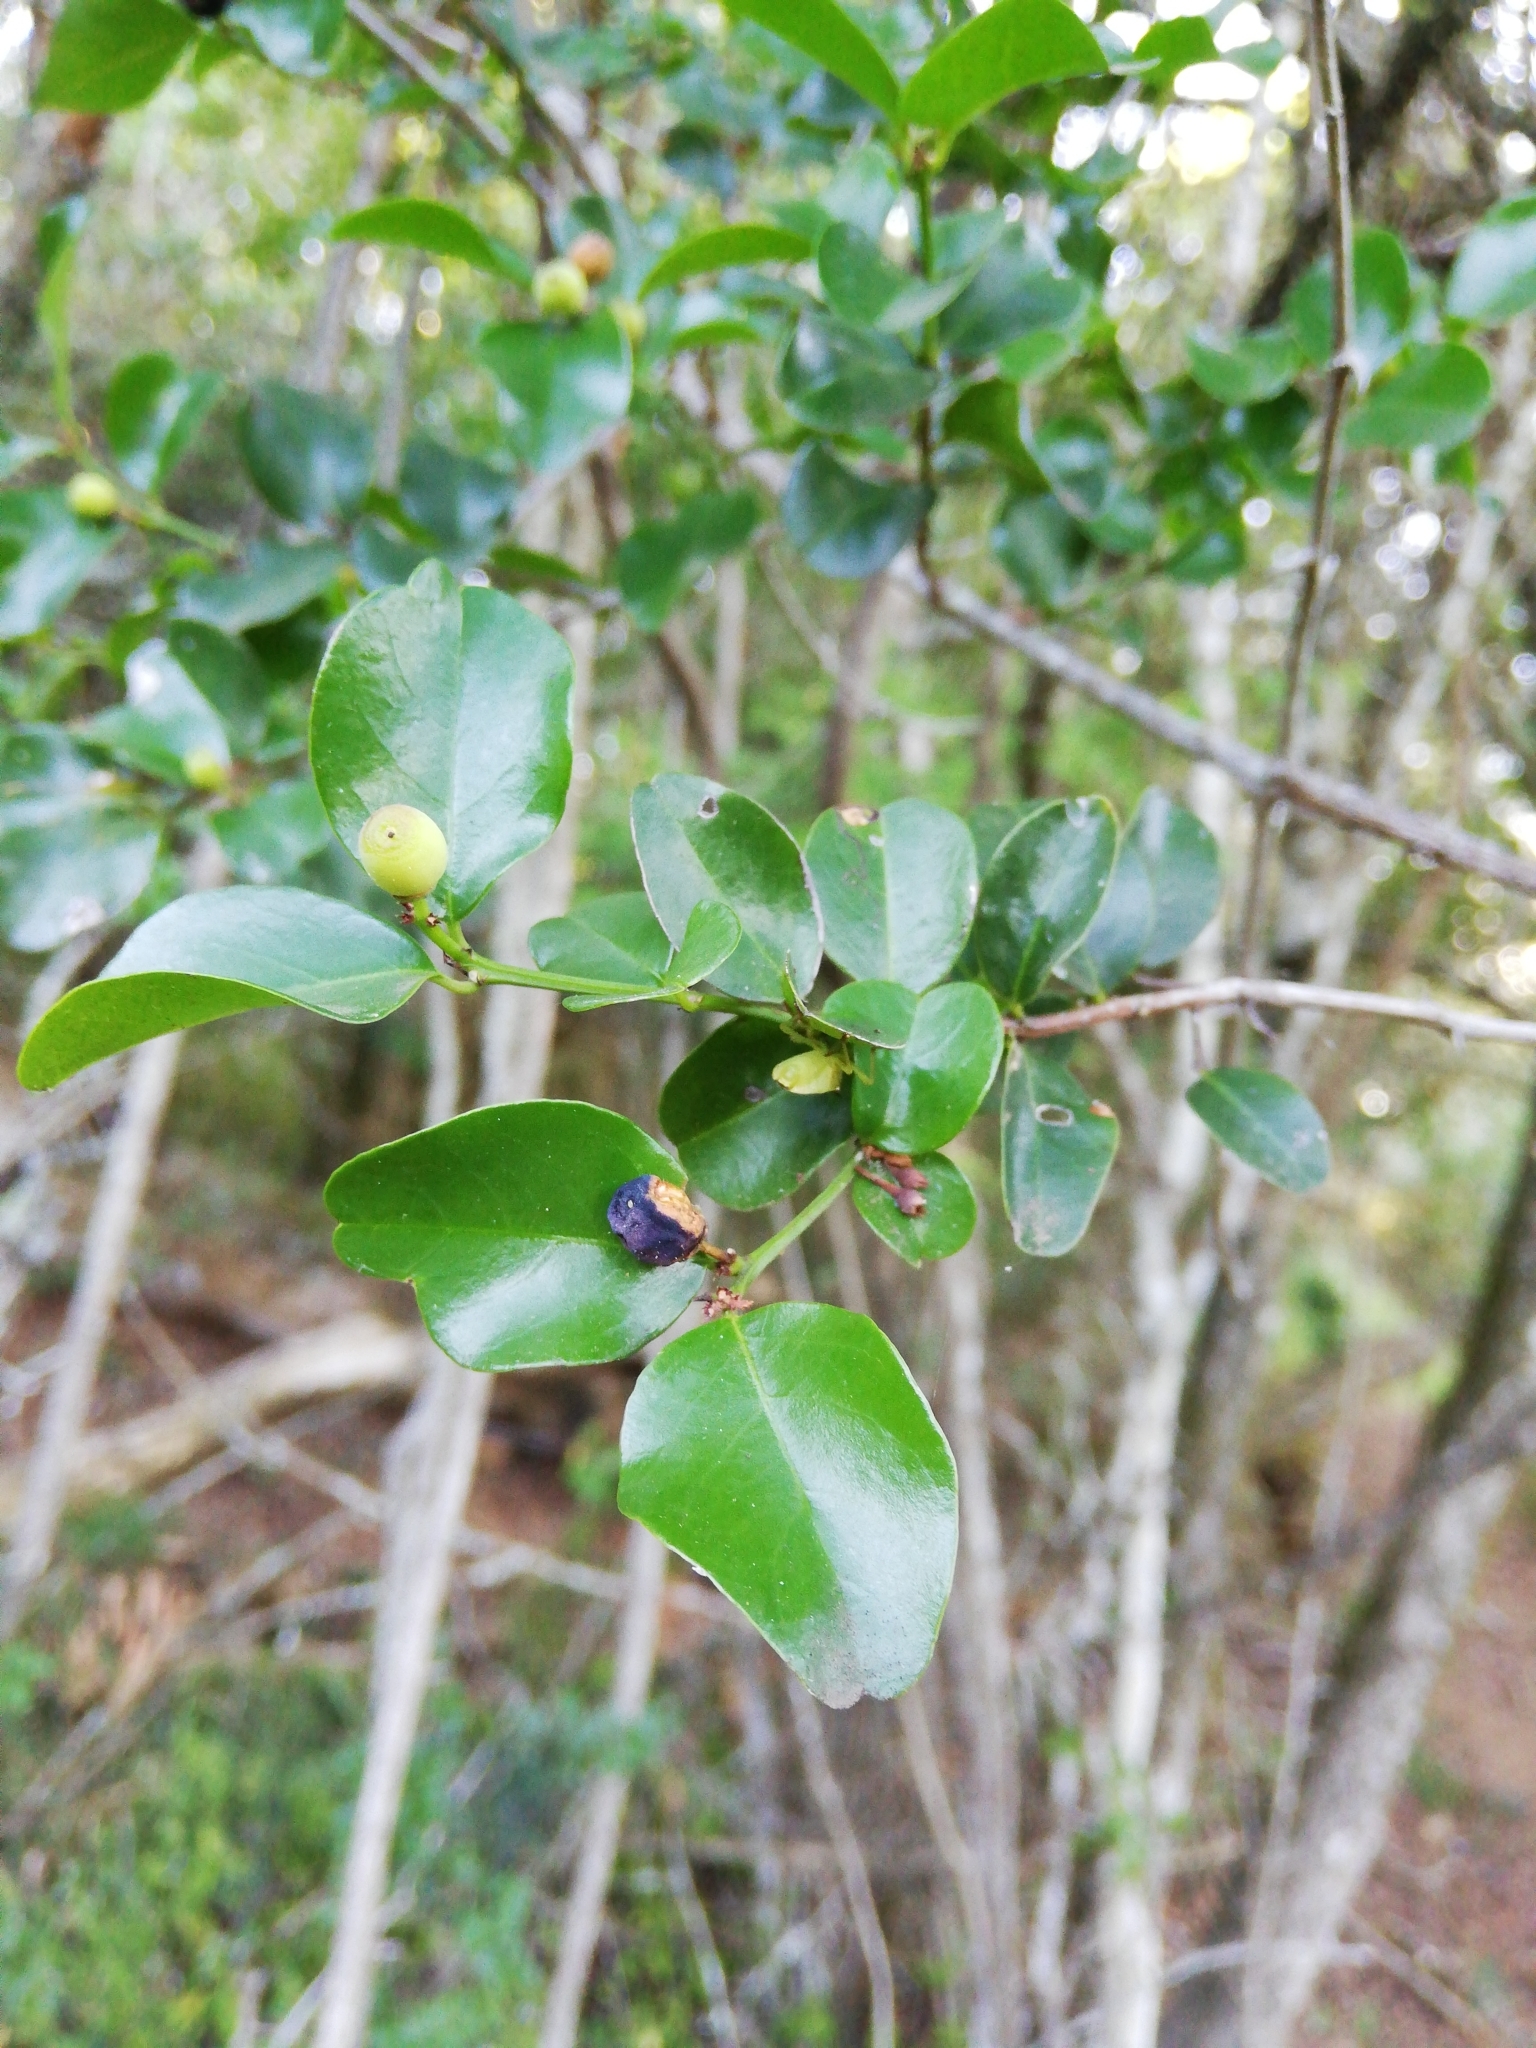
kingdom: Plantae
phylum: Tracheophyta
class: Magnoliopsida
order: Rosales
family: Rhamnaceae
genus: Scutia
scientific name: Scutia myrtina
